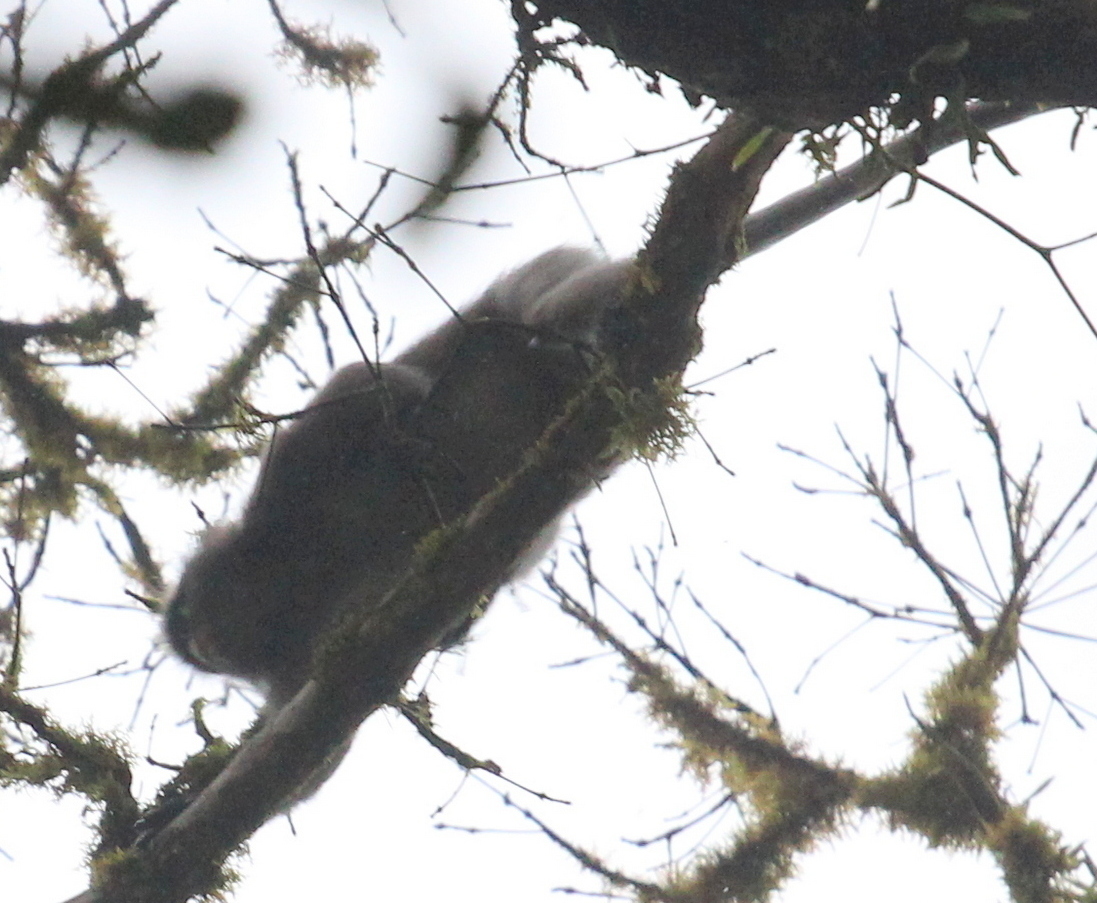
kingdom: Animalia
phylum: Chordata
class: Mammalia
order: Primates
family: Cercopithecidae
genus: Trachypithecus
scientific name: Trachypithecus obscurus
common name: Dusky leaf-monkey
